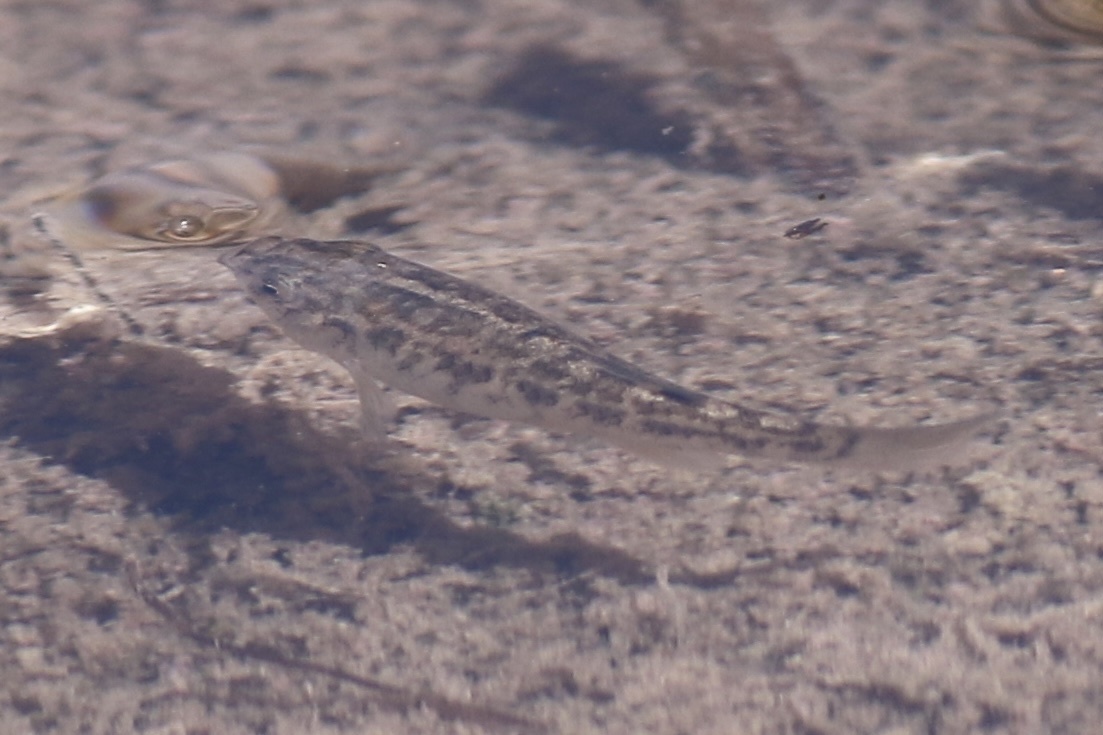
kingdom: Animalia
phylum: Chordata
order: Cyprinodontiformes
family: Cyprinodontidae
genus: Cyprinodon
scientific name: Cyprinodon macularius
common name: Desert pupfish
